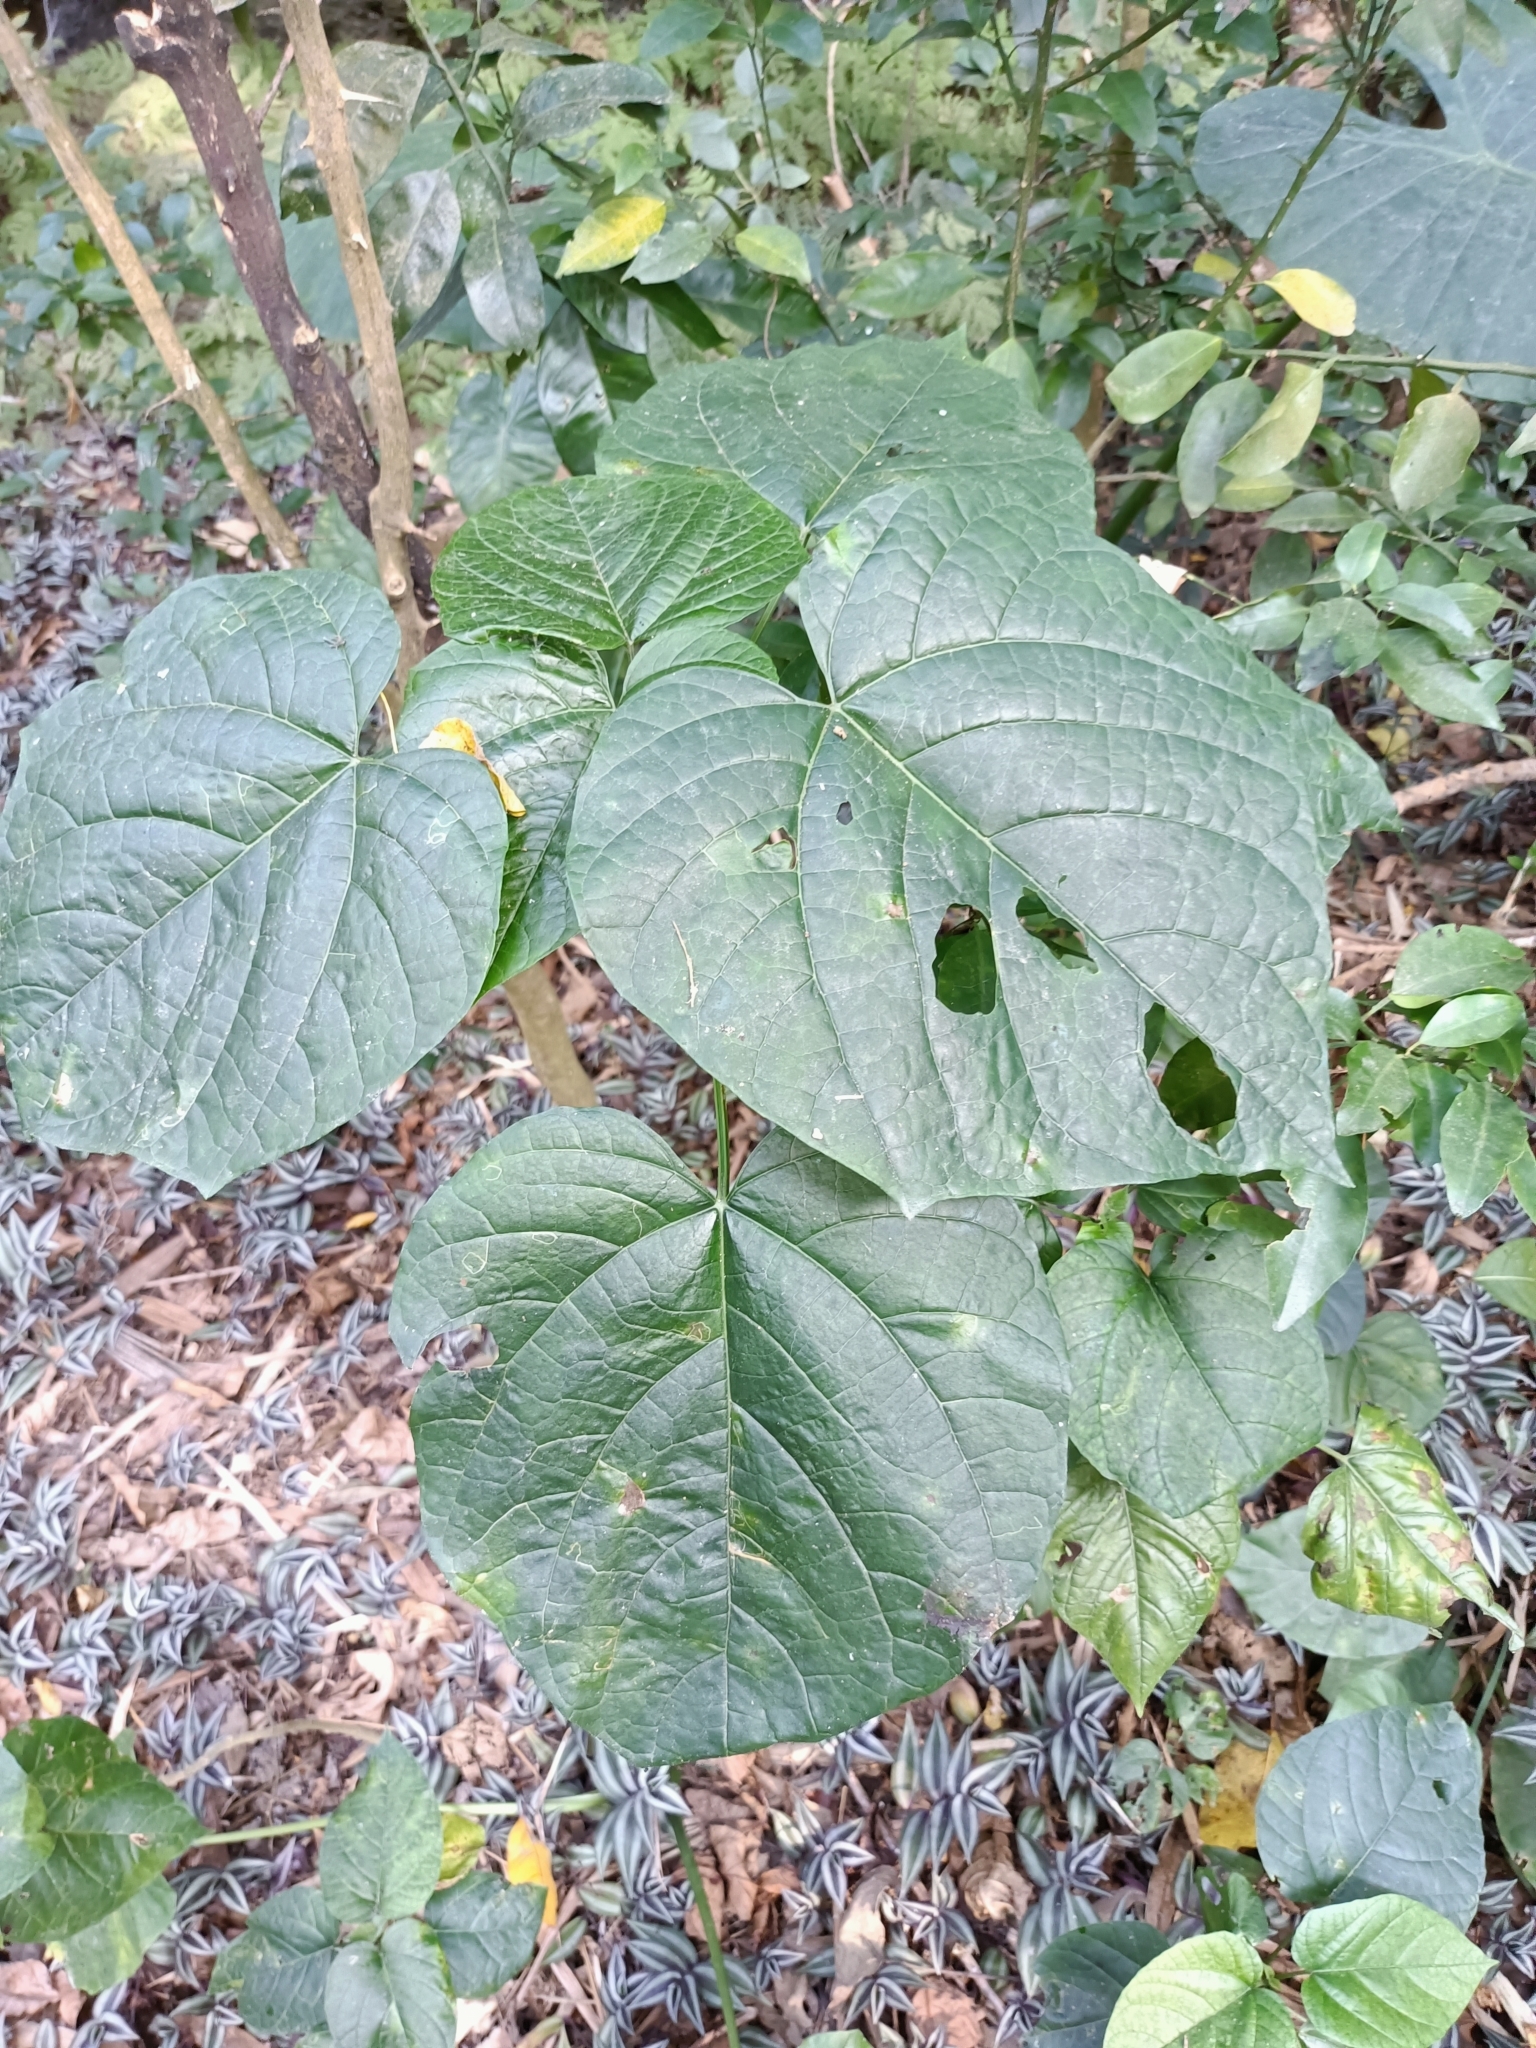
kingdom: Plantae
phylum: Tracheophyta
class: Magnoliopsida
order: Lamiales
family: Lamiaceae
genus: Clerodendrum
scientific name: Clerodendrum japonicum
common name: Japanese glorybower
